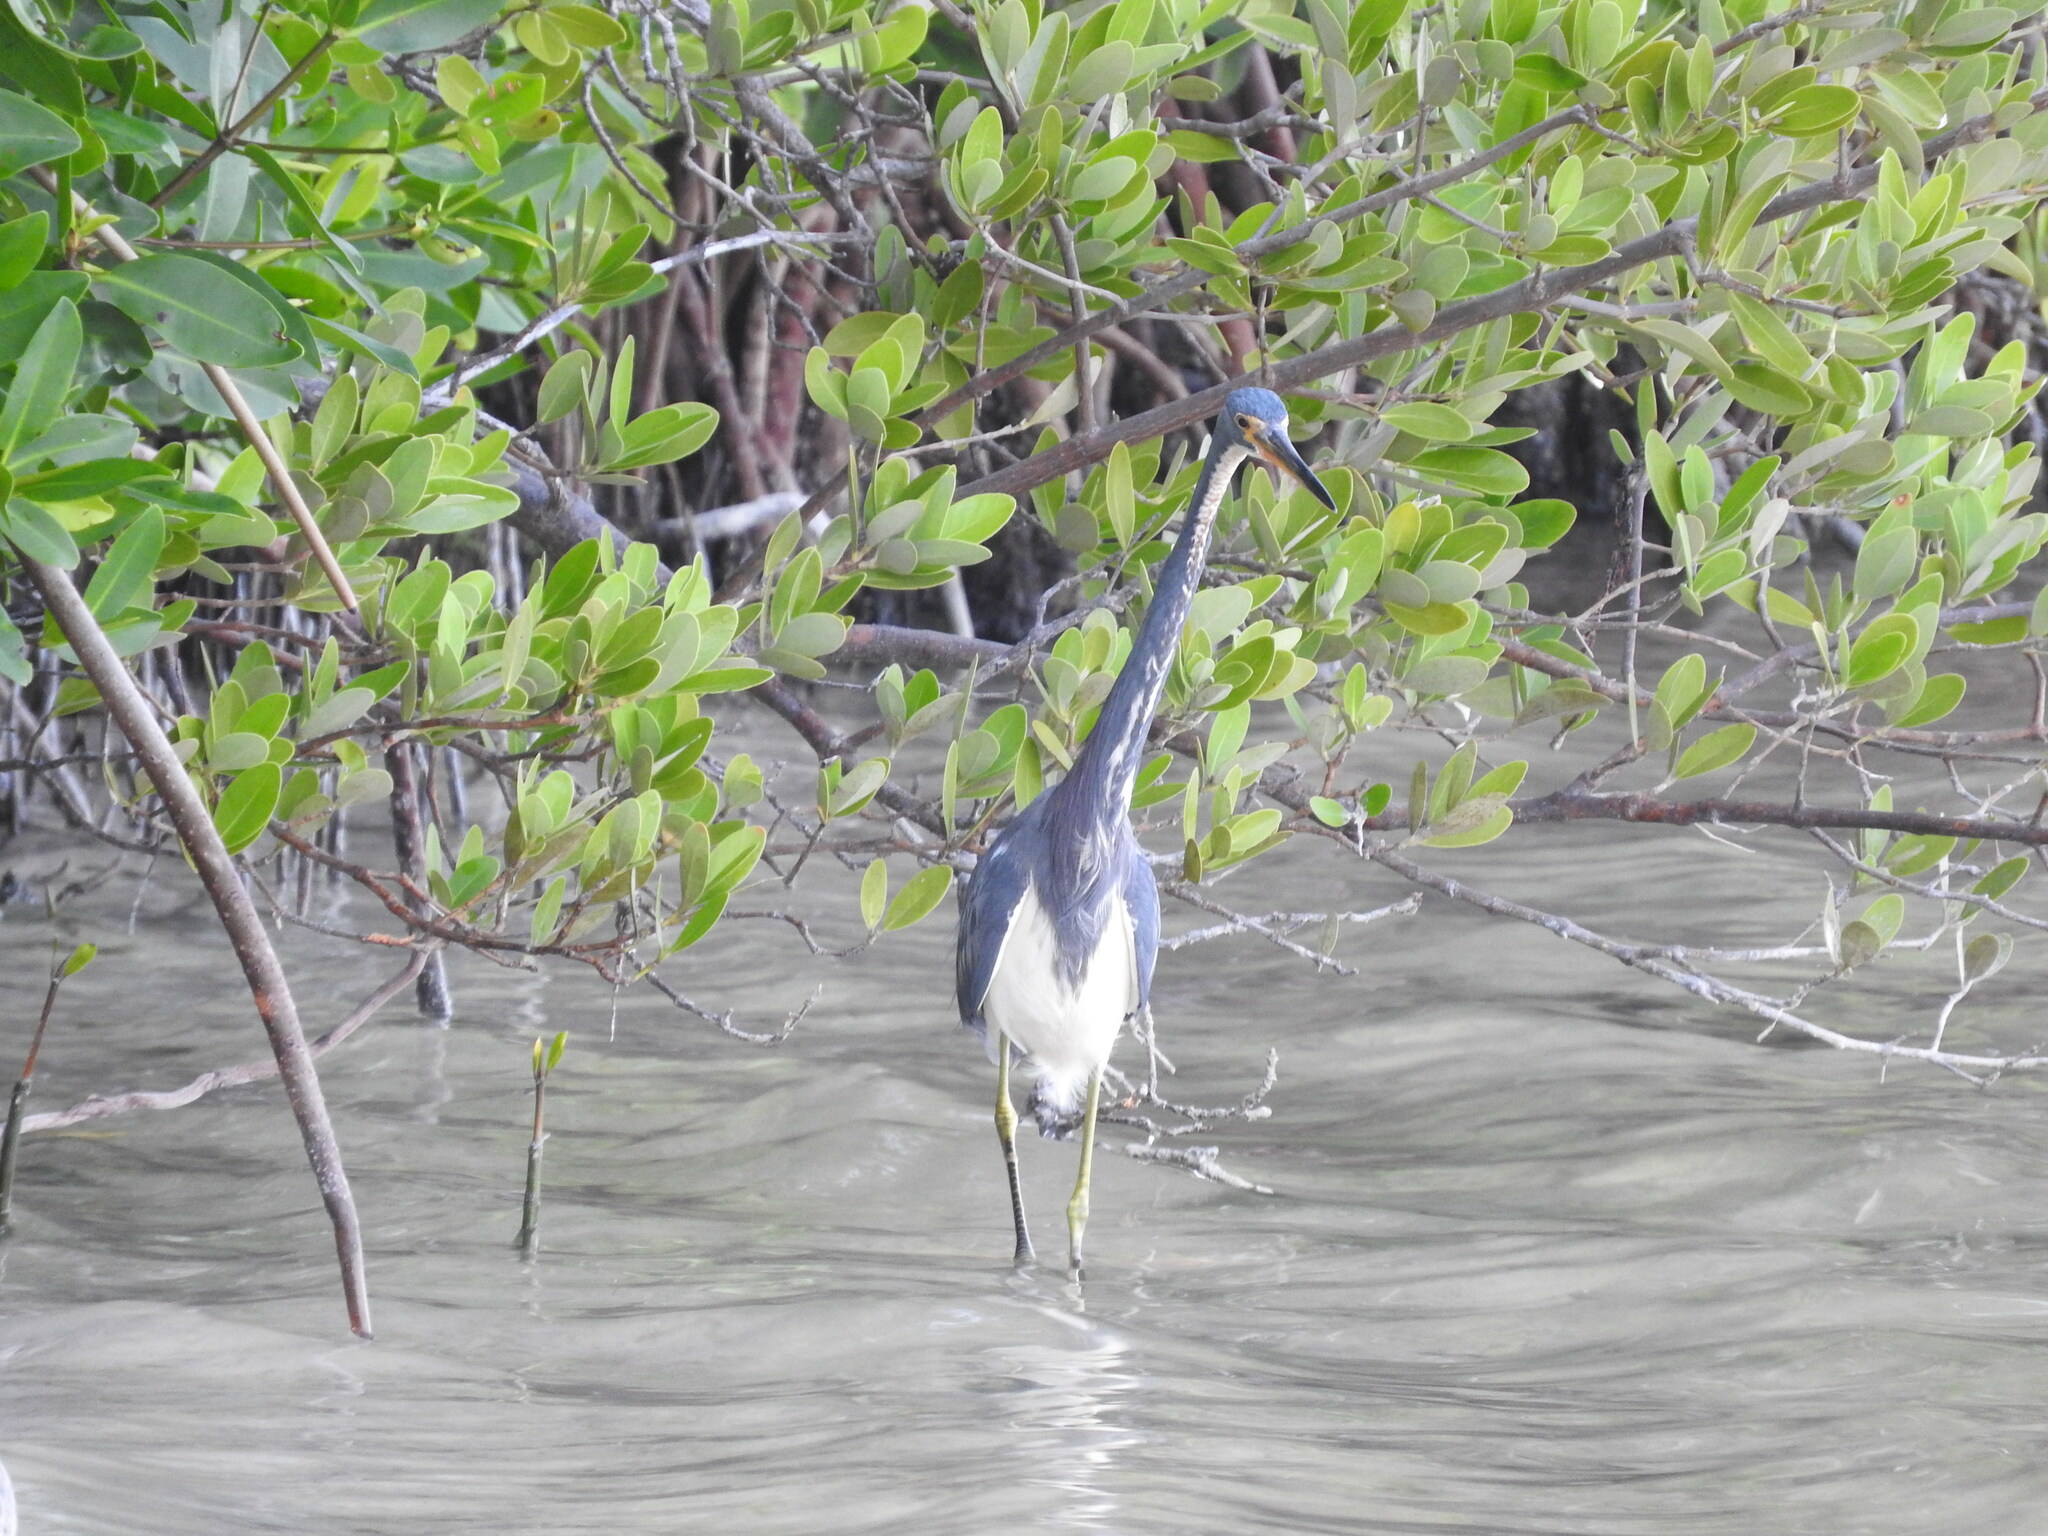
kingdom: Animalia
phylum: Chordata
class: Aves
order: Pelecaniformes
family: Ardeidae
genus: Egretta
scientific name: Egretta tricolor
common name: Tricolored heron
